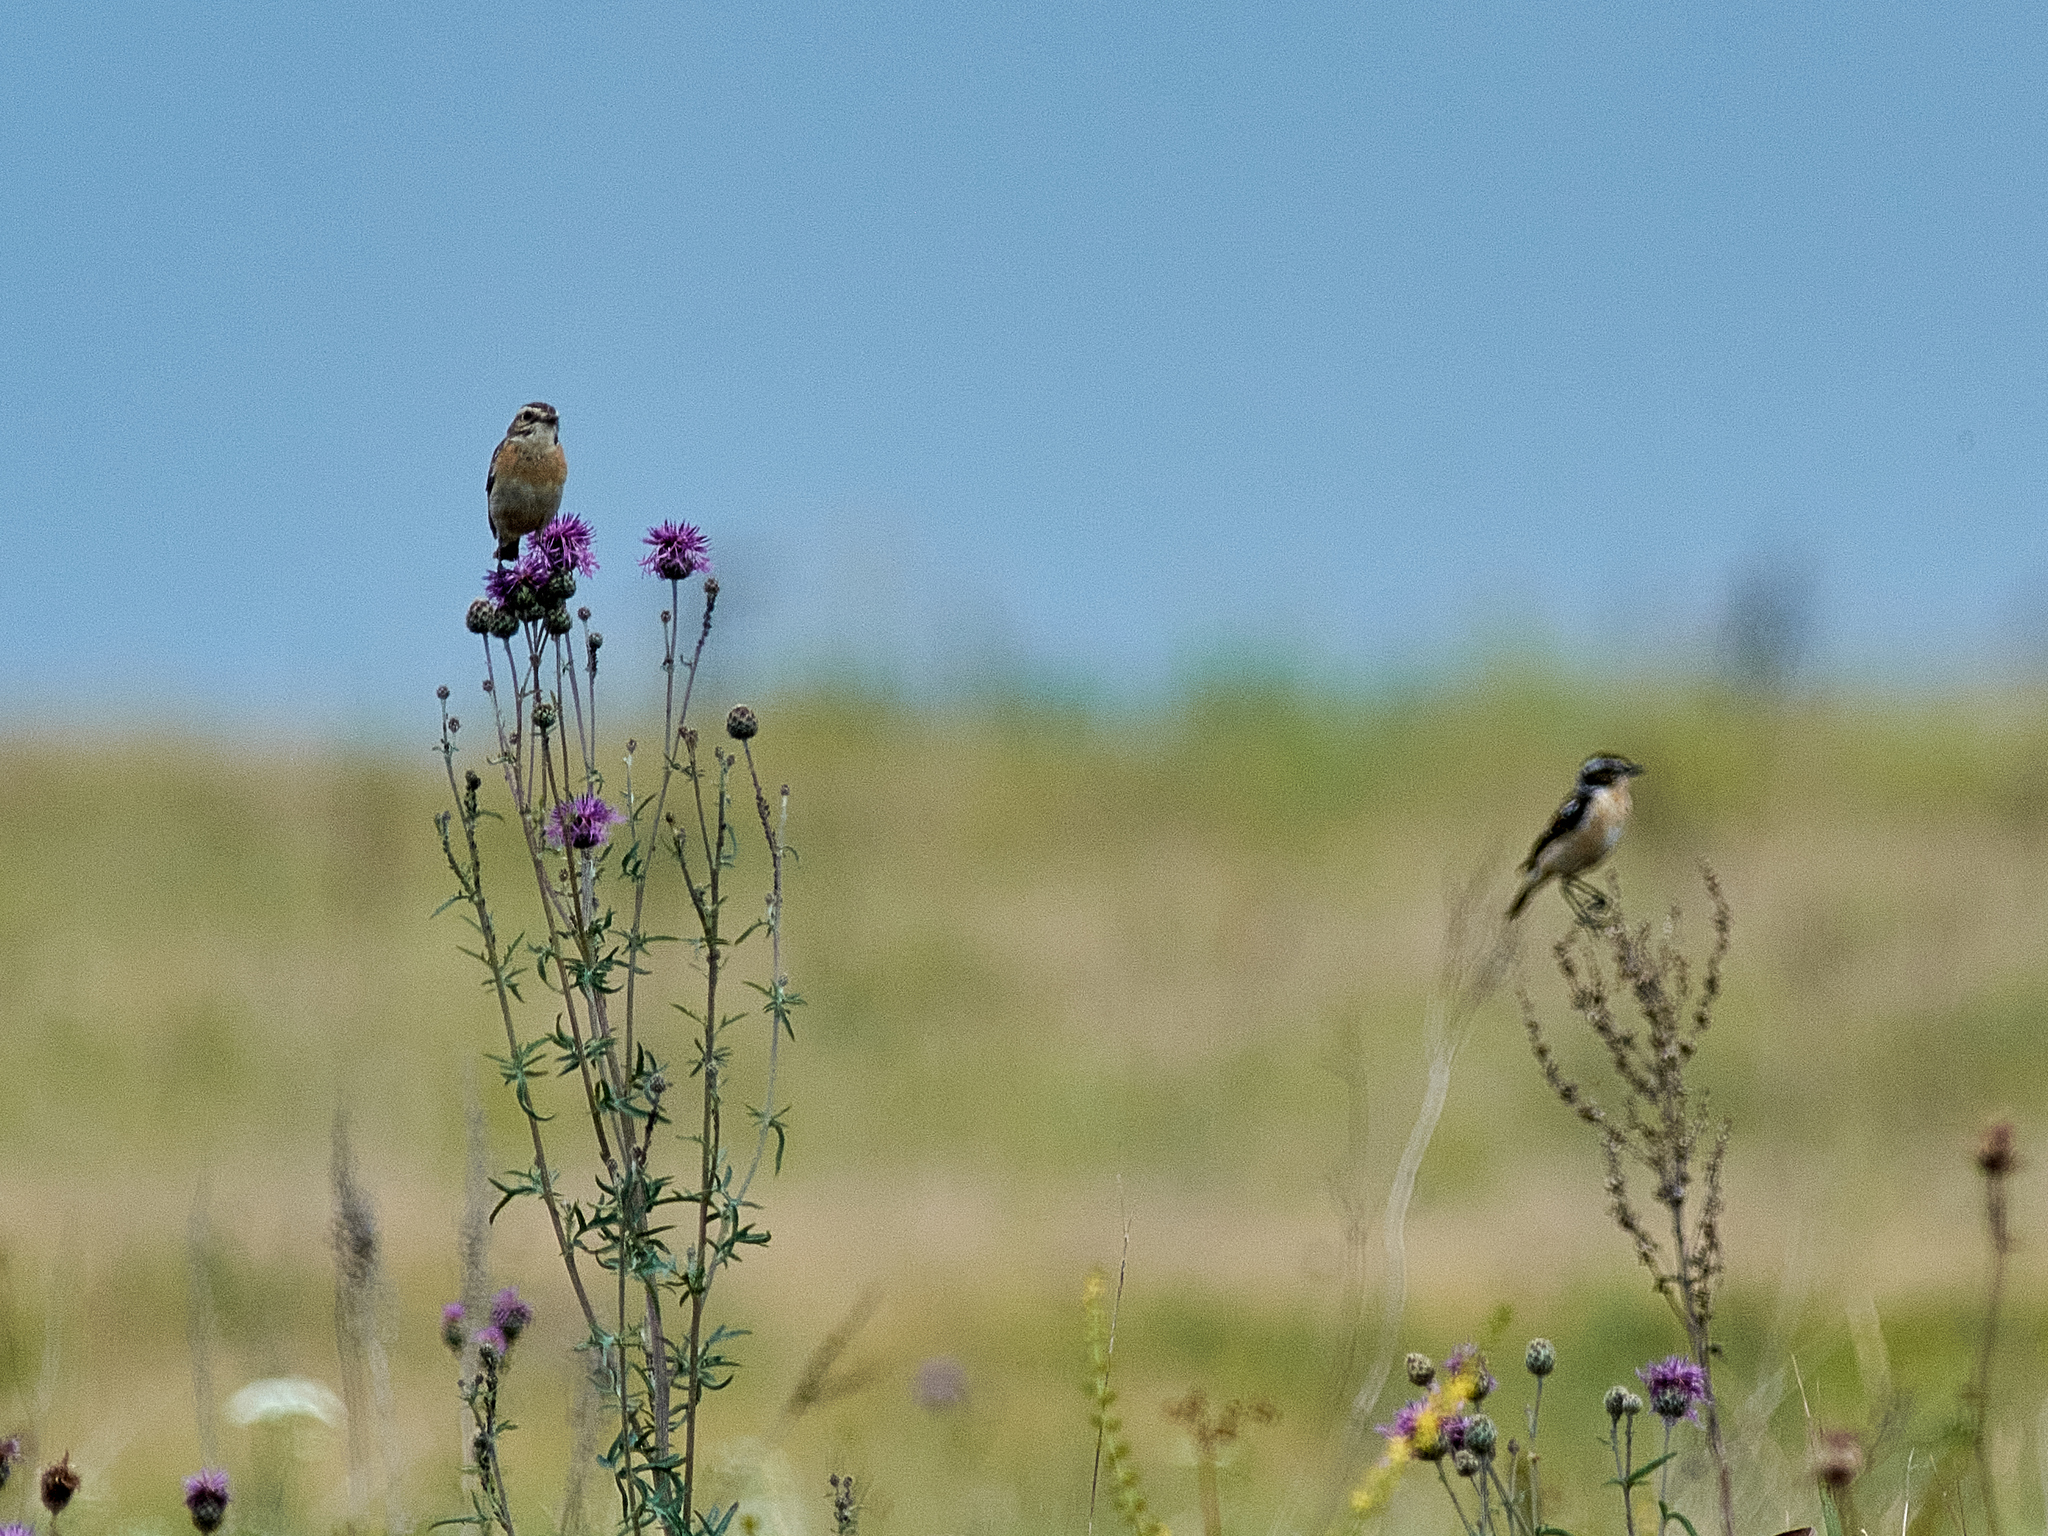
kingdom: Animalia
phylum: Chordata
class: Aves
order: Passeriformes
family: Muscicapidae
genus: Saxicola
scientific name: Saxicola rubetra
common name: Whinchat
